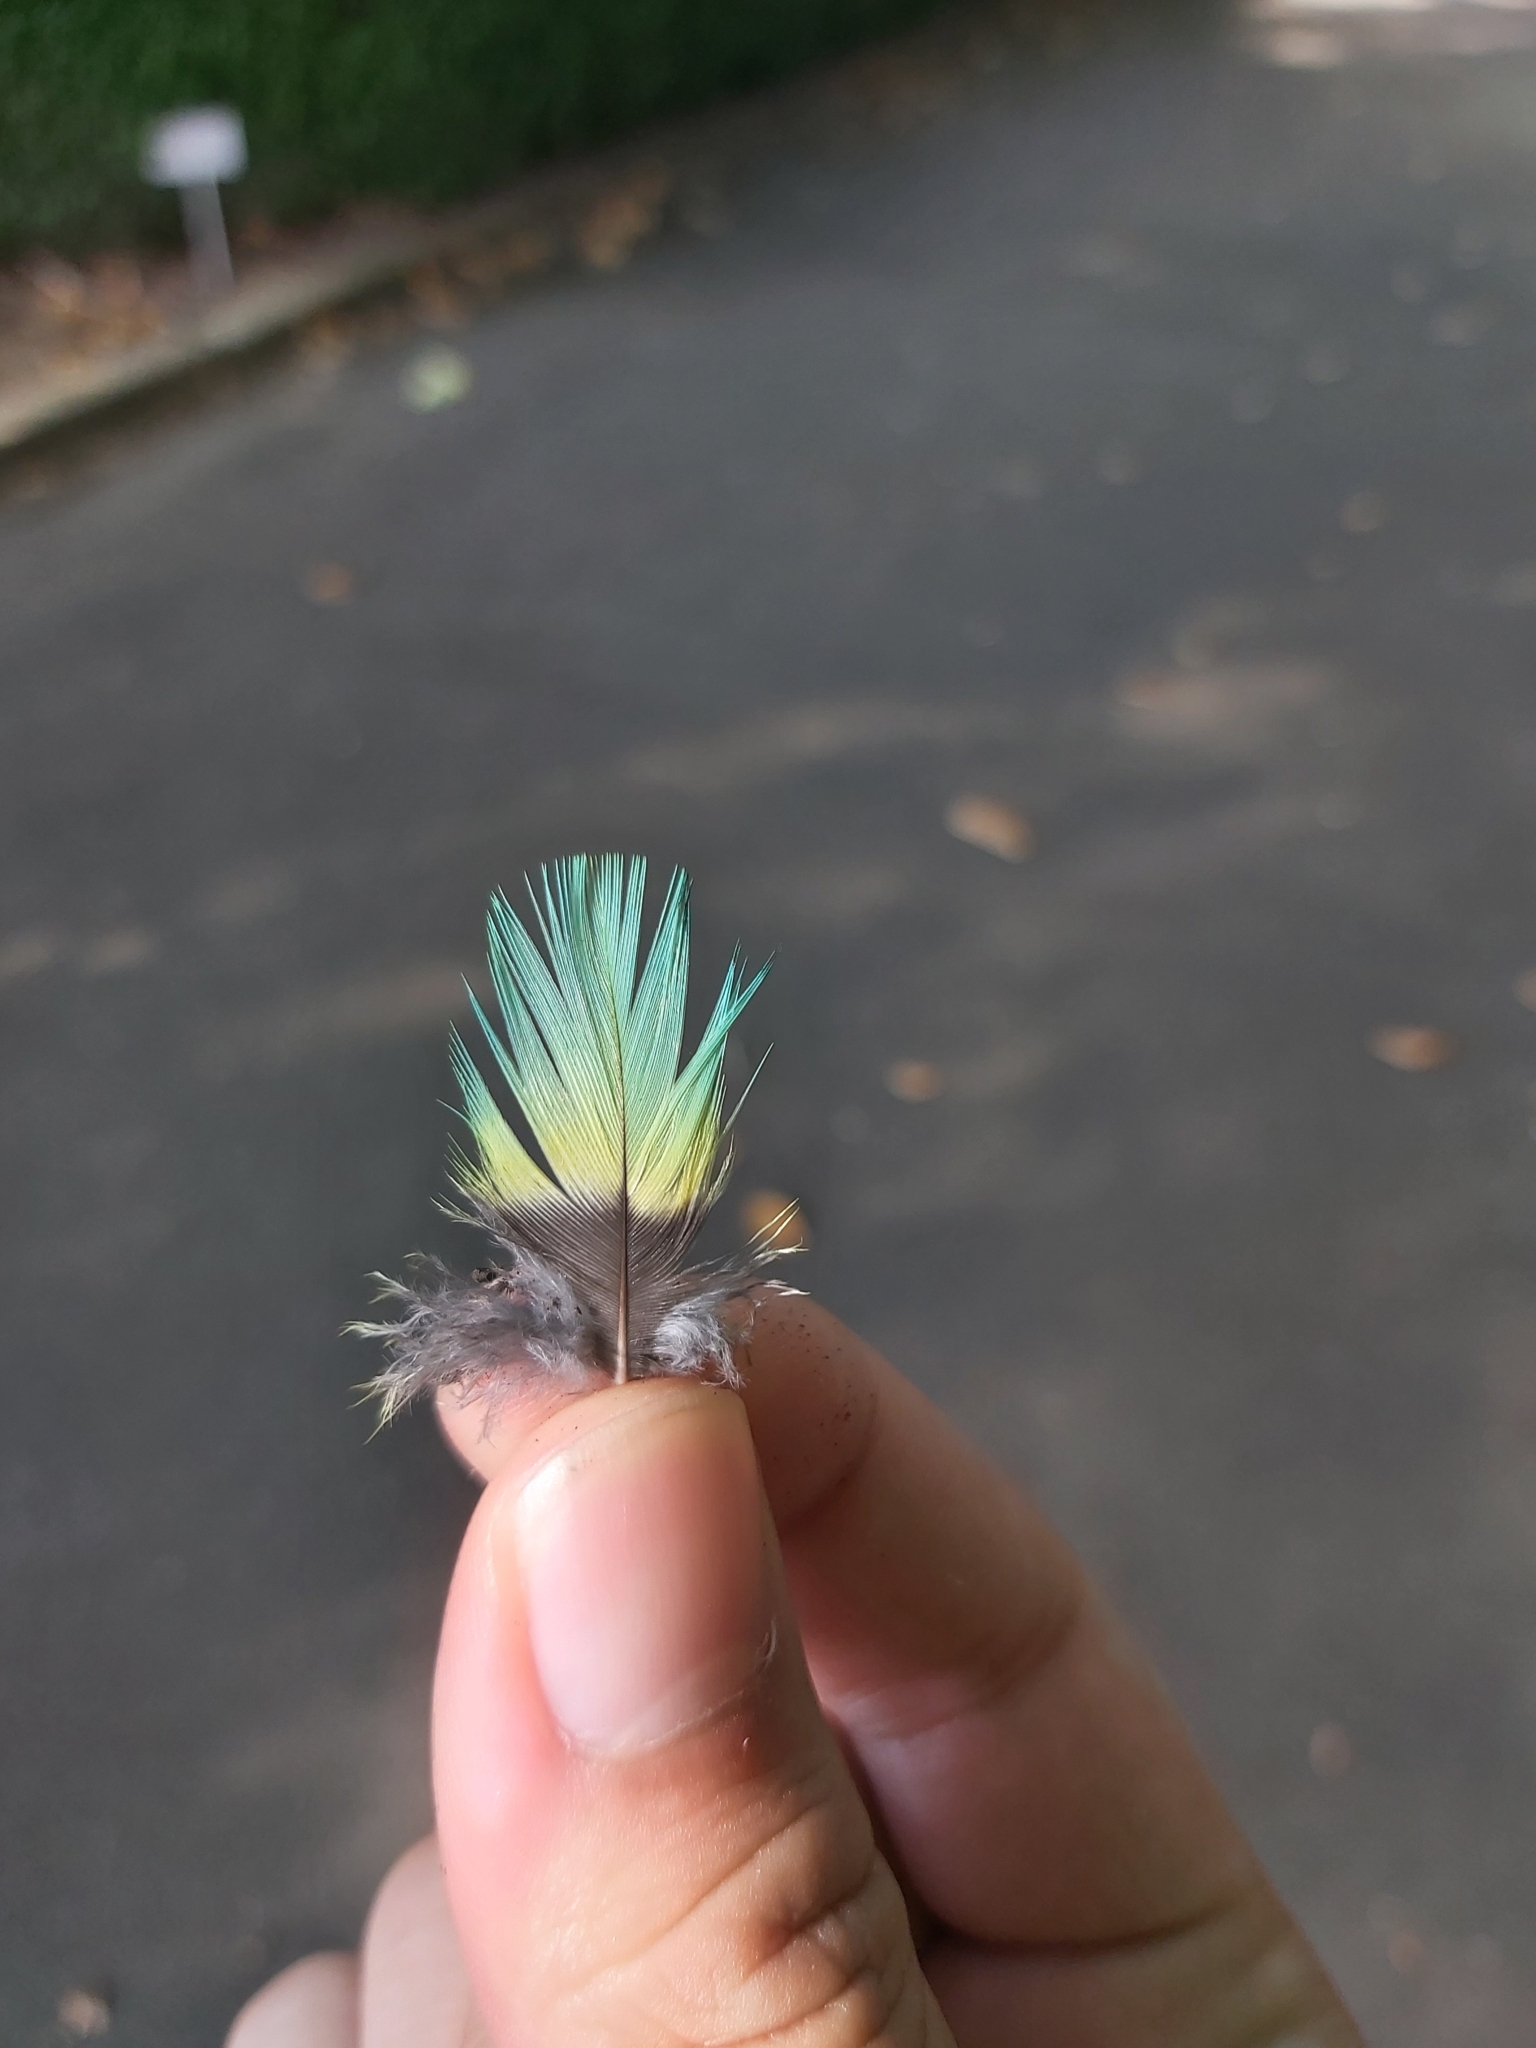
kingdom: Animalia
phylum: Chordata
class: Aves
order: Psittaciformes
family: Psittacidae
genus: Psephotus
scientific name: Psephotus haematonotus
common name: Red-rumped parrot
